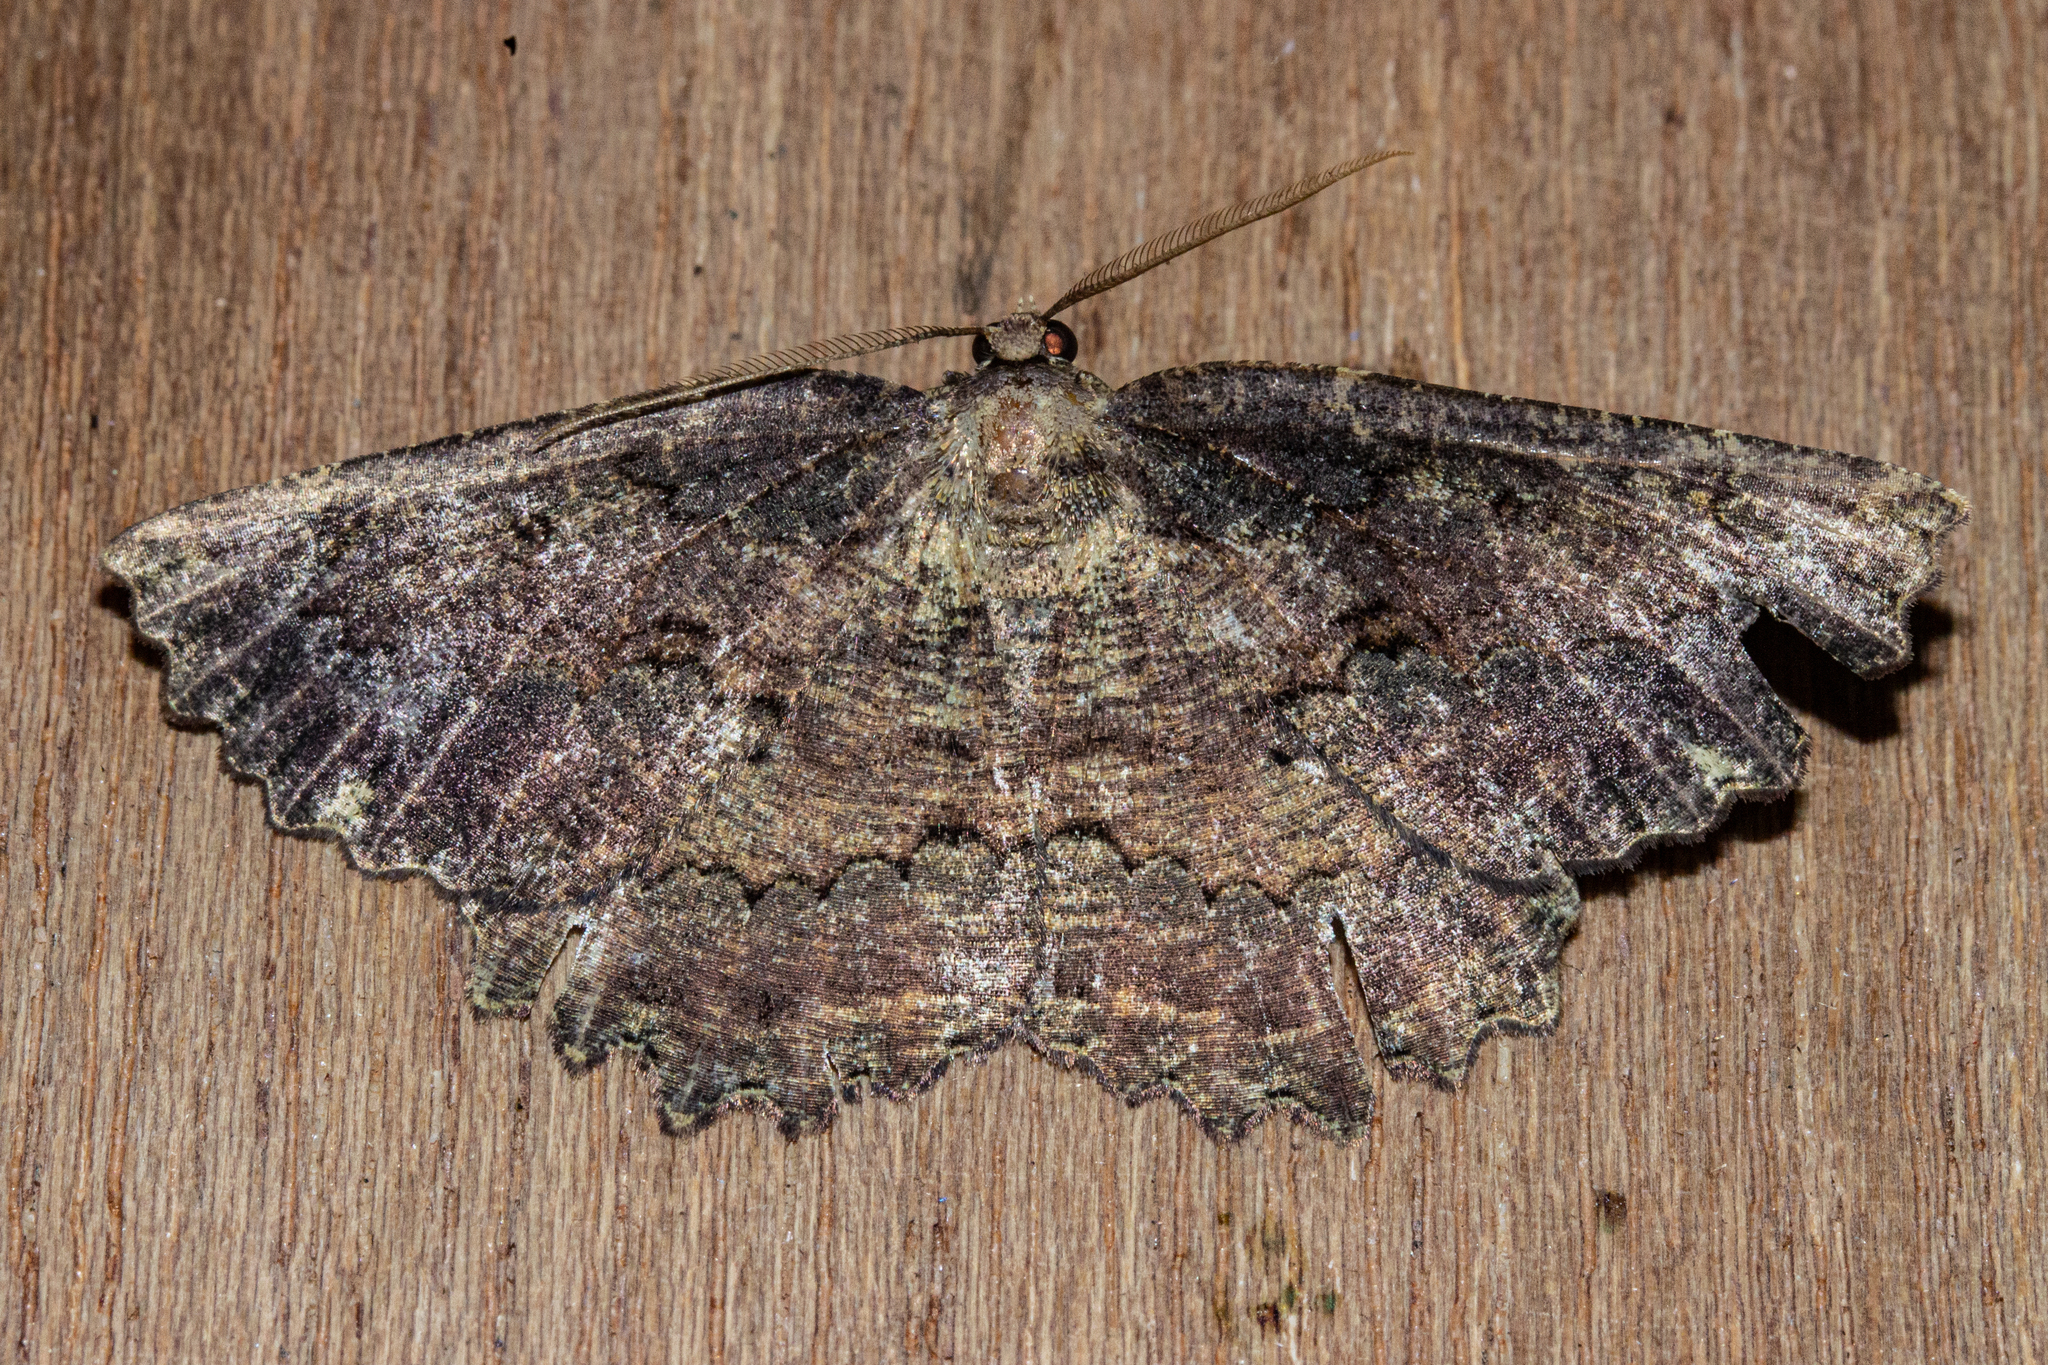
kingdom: Animalia
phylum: Arthropoda
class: Insecta
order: Lepidoptera
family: Geometridae
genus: Gellonia
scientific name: Gellonia pannularia
